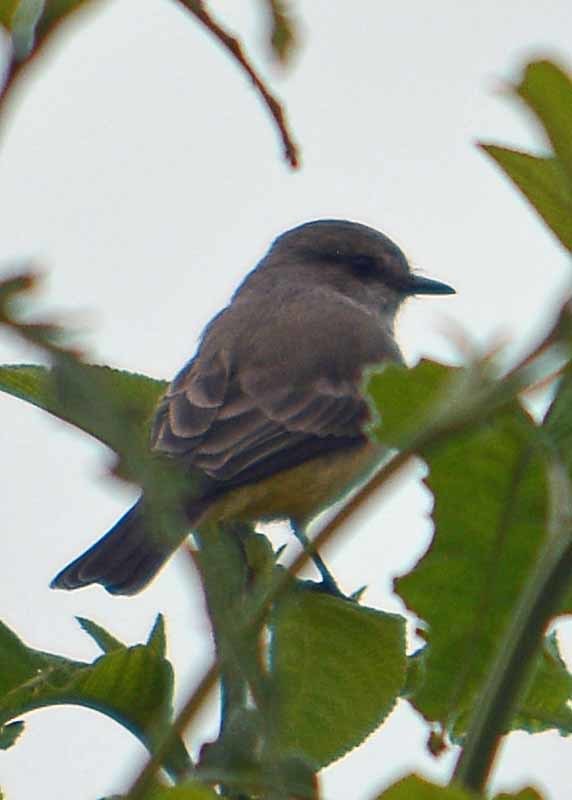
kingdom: Animalia
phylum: Chordata
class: Aves
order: Passeriformes
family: Tyrannidae
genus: Pyrocephalus
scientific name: Pyrocephalus rubinus
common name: Vermilion flycatcher
